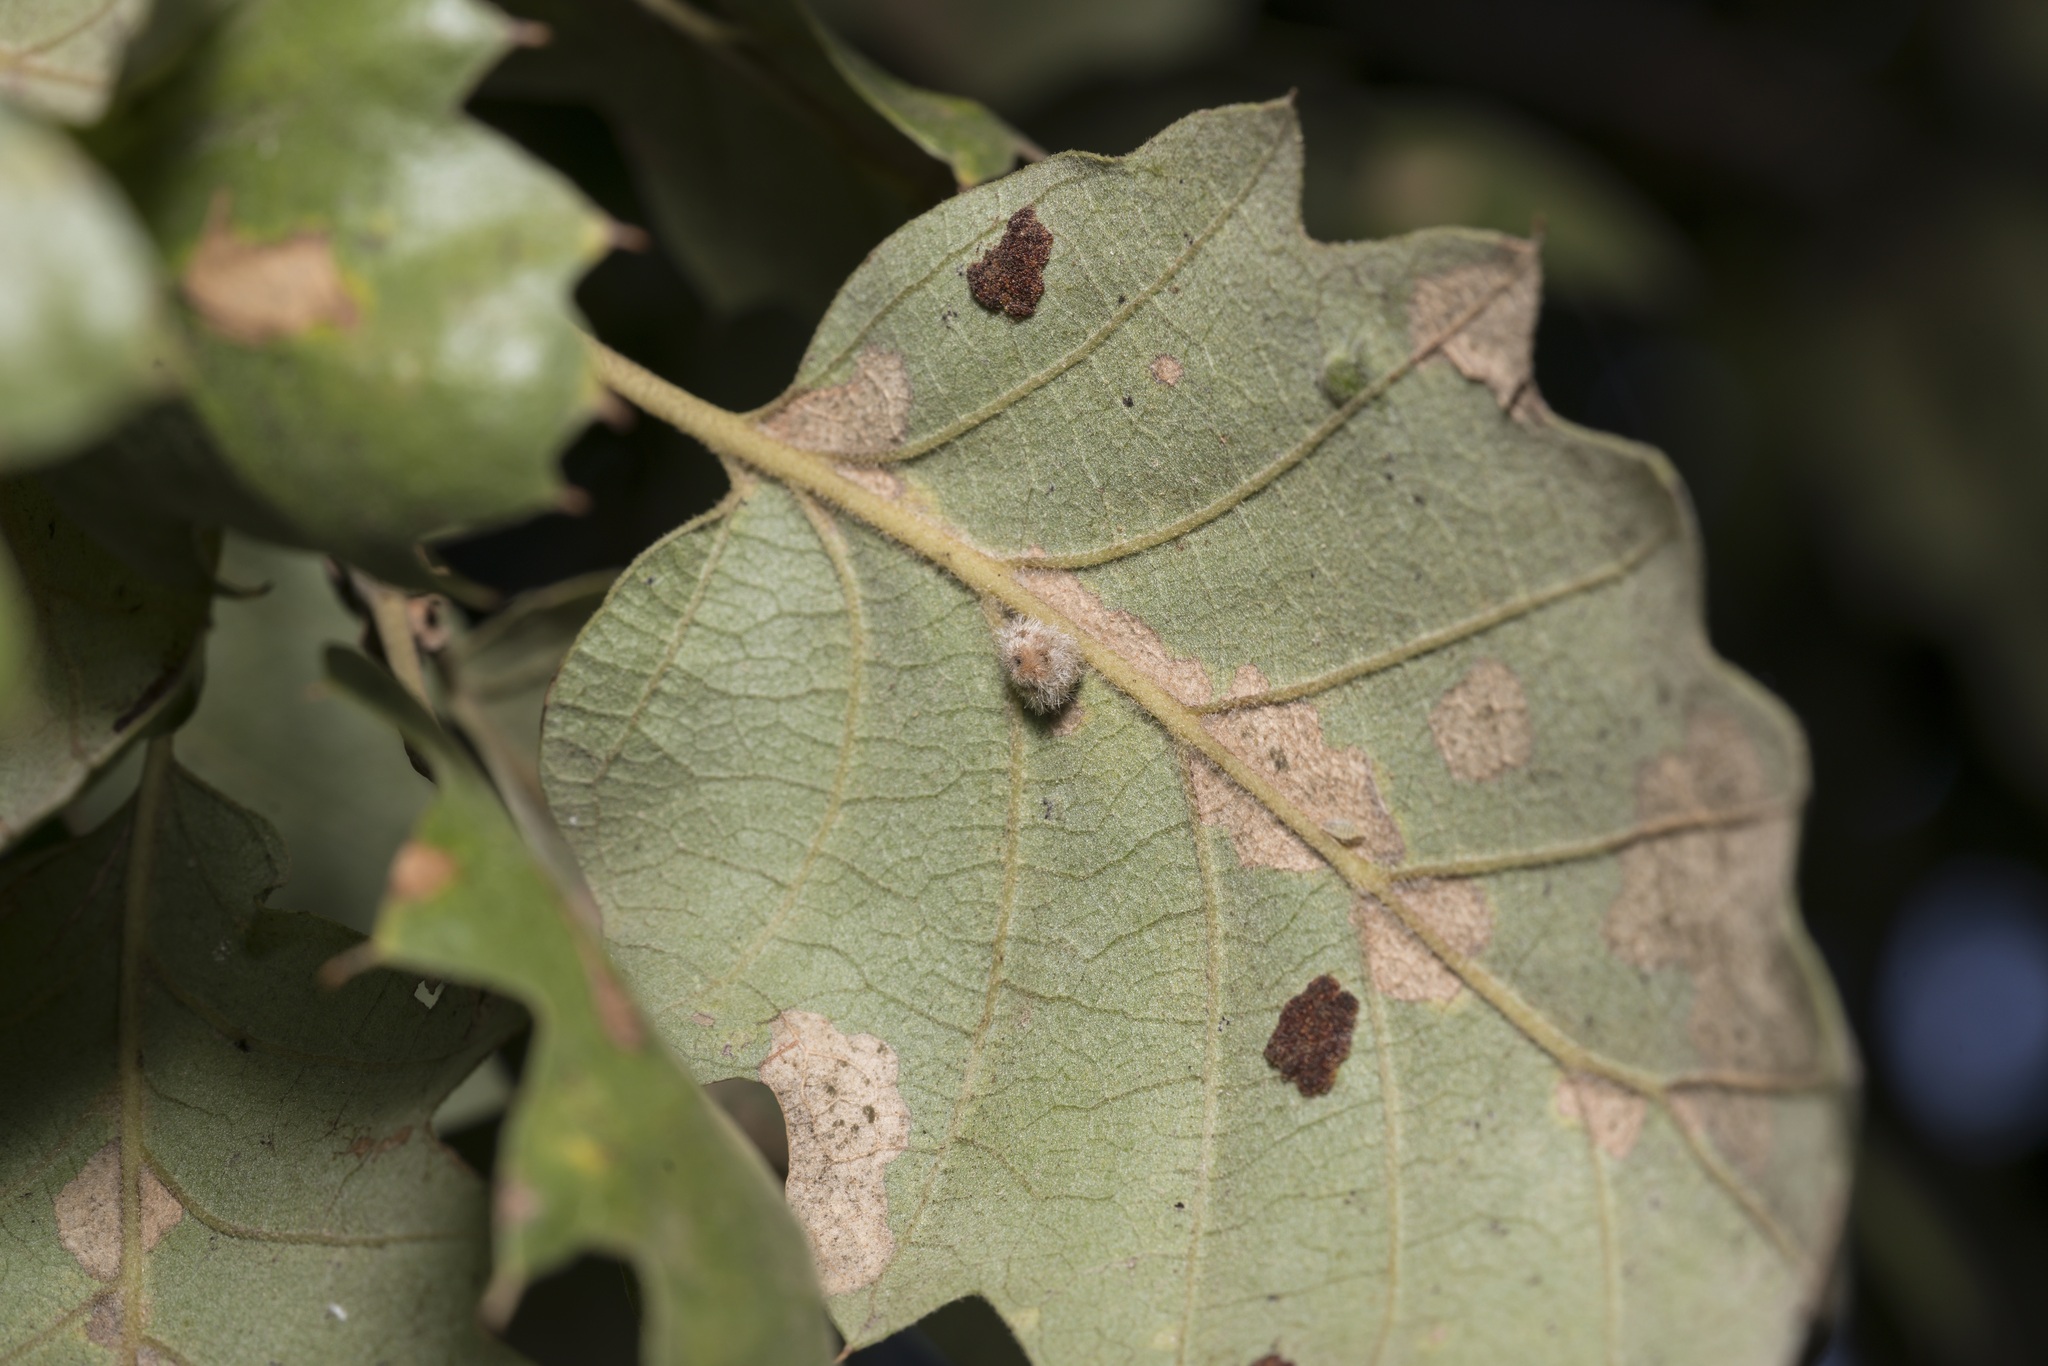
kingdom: Animalia
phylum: Arthropoda
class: Insecta
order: Hymenoptera
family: Cynipidae
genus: Neuroterus
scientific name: Neuroterus lanuginosus
